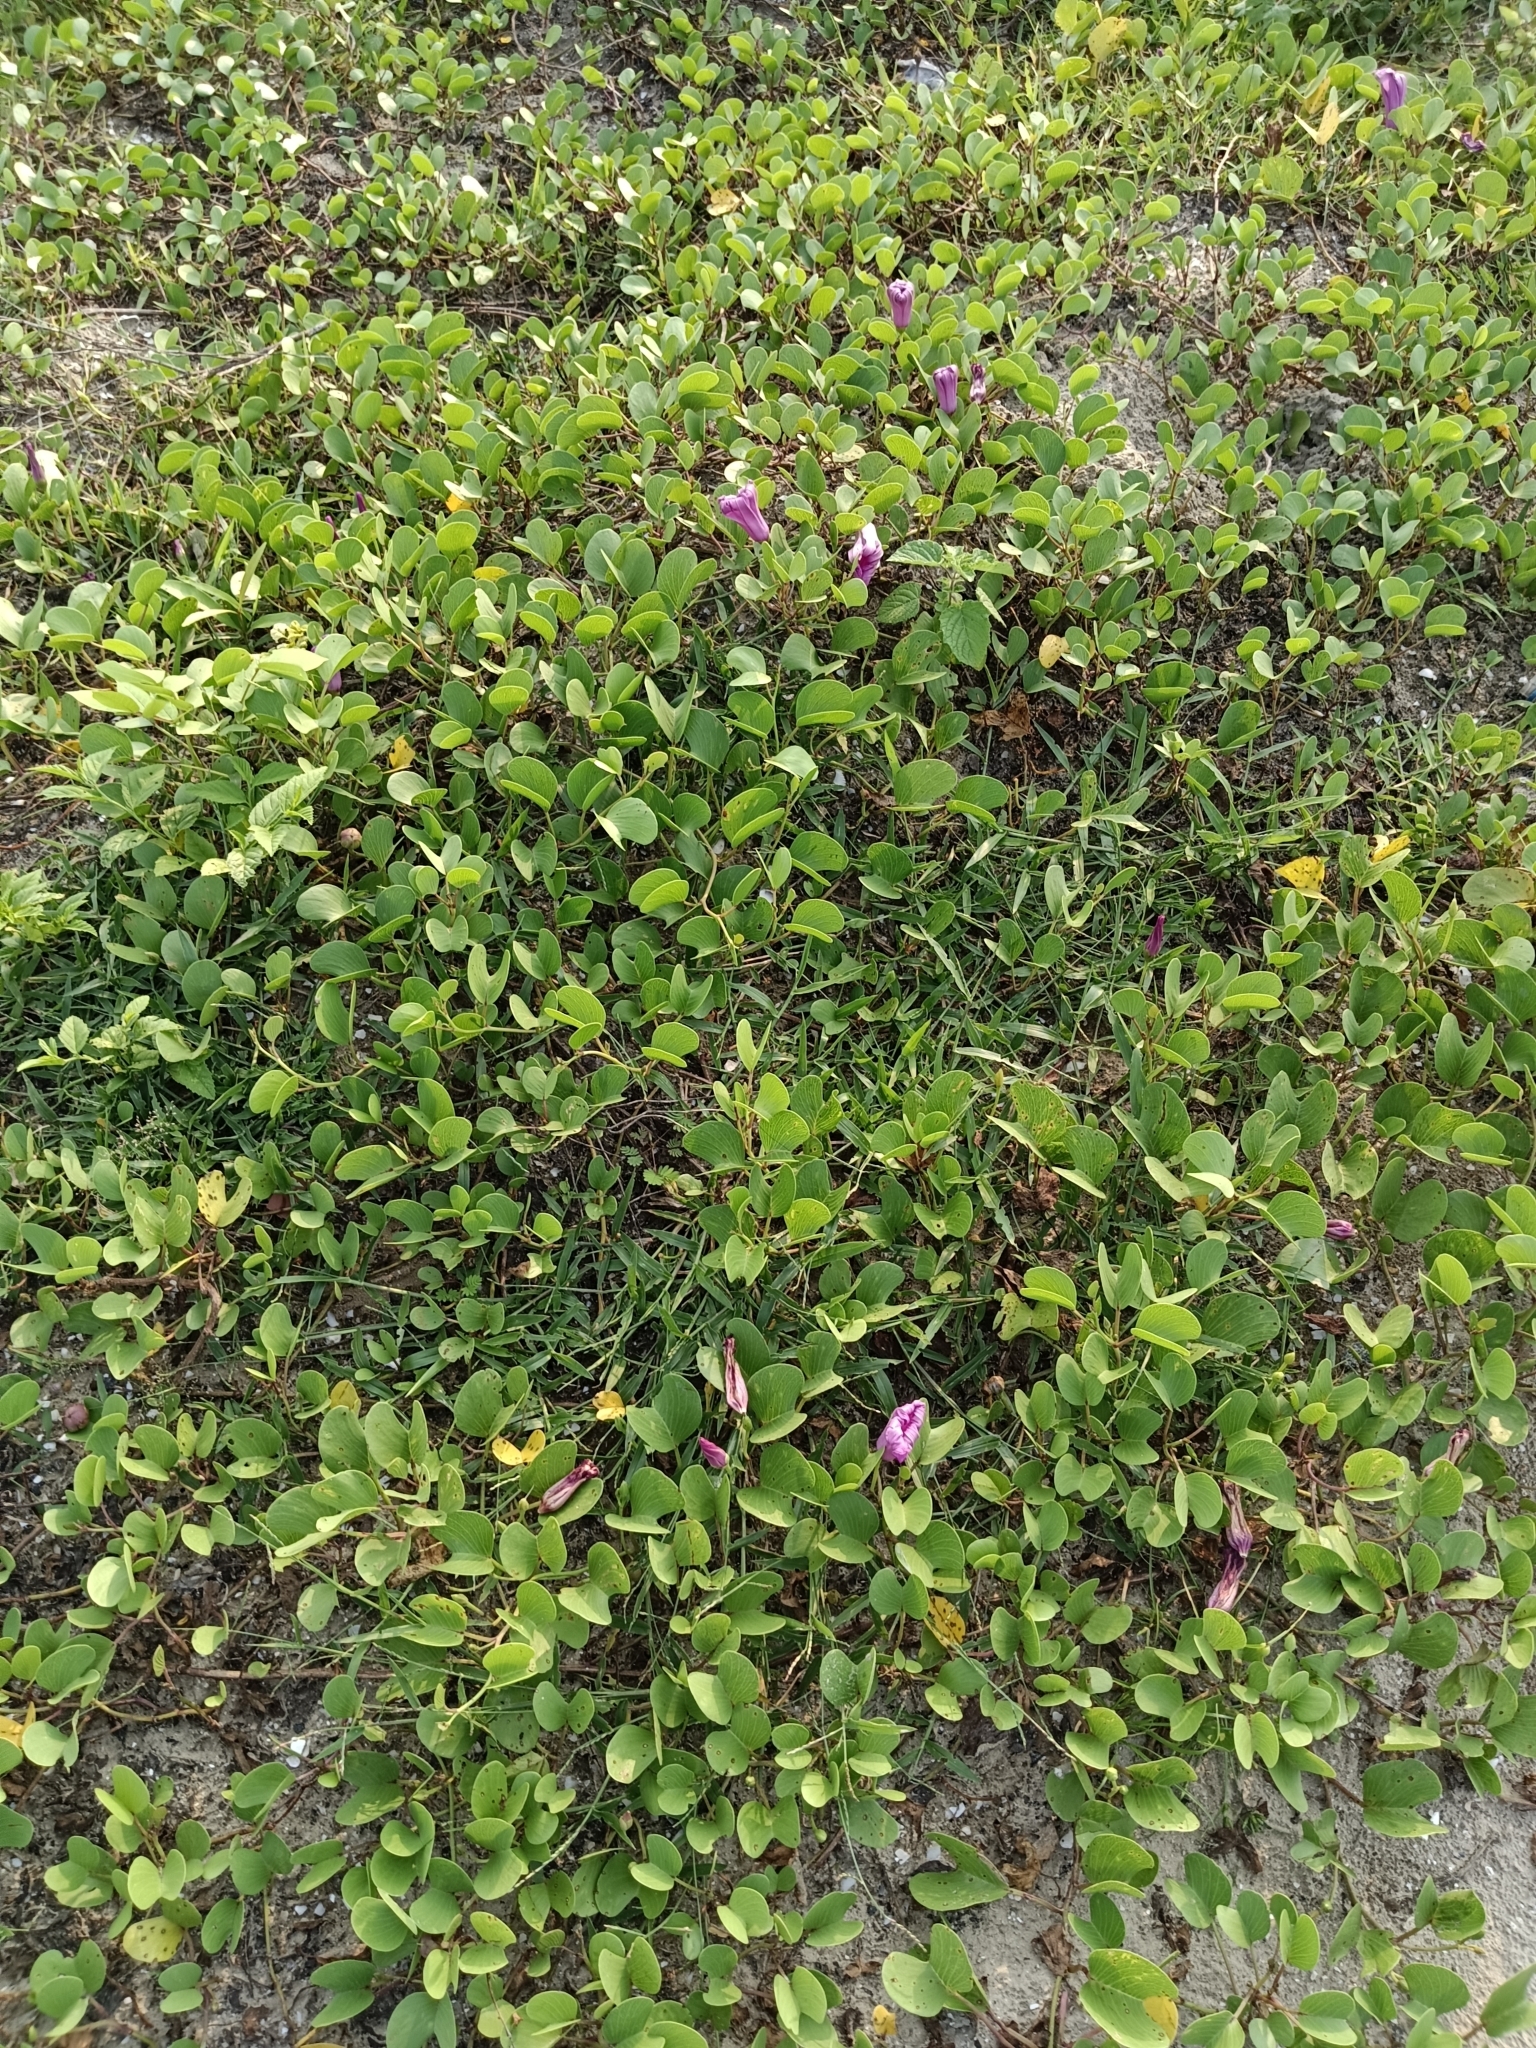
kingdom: Plantae
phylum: Tracheophyta
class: Magnoliopsida
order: Solanales
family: Convolvulaceae
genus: Ipomoea
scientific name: Ipomoea pes-caprae
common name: Beach morning glory
